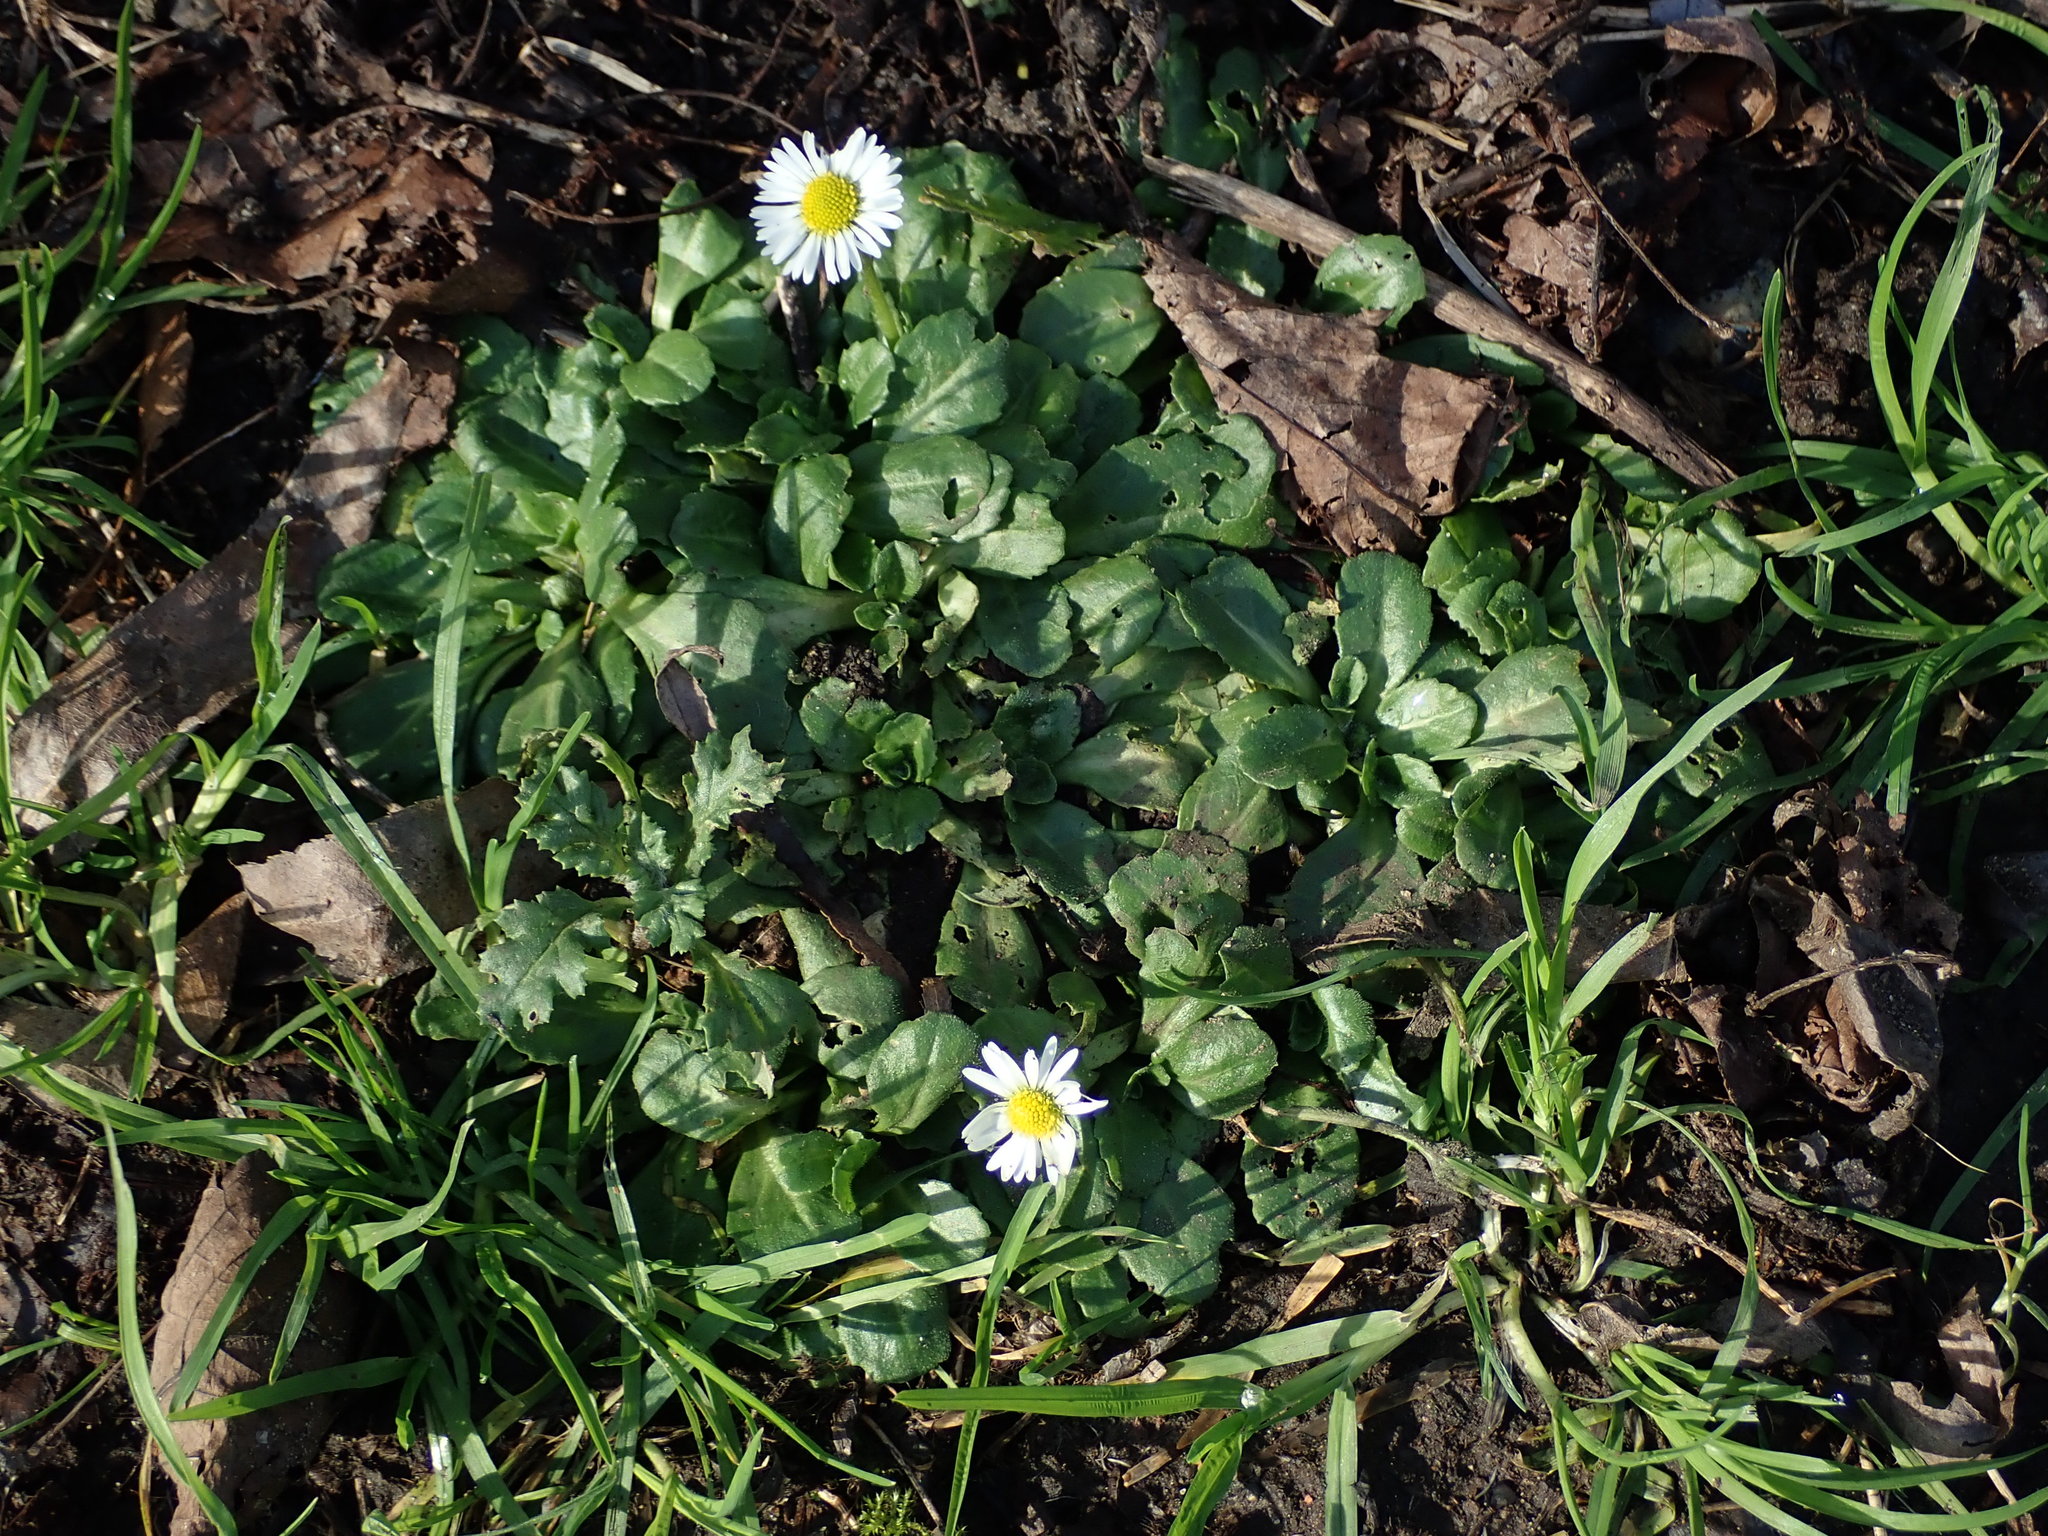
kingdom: Plantae
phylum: Tracheophyta
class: Magnoliopsida
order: Asterales
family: Asteraceae
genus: Bellis
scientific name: Bellis perennis
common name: Lawndaisy
